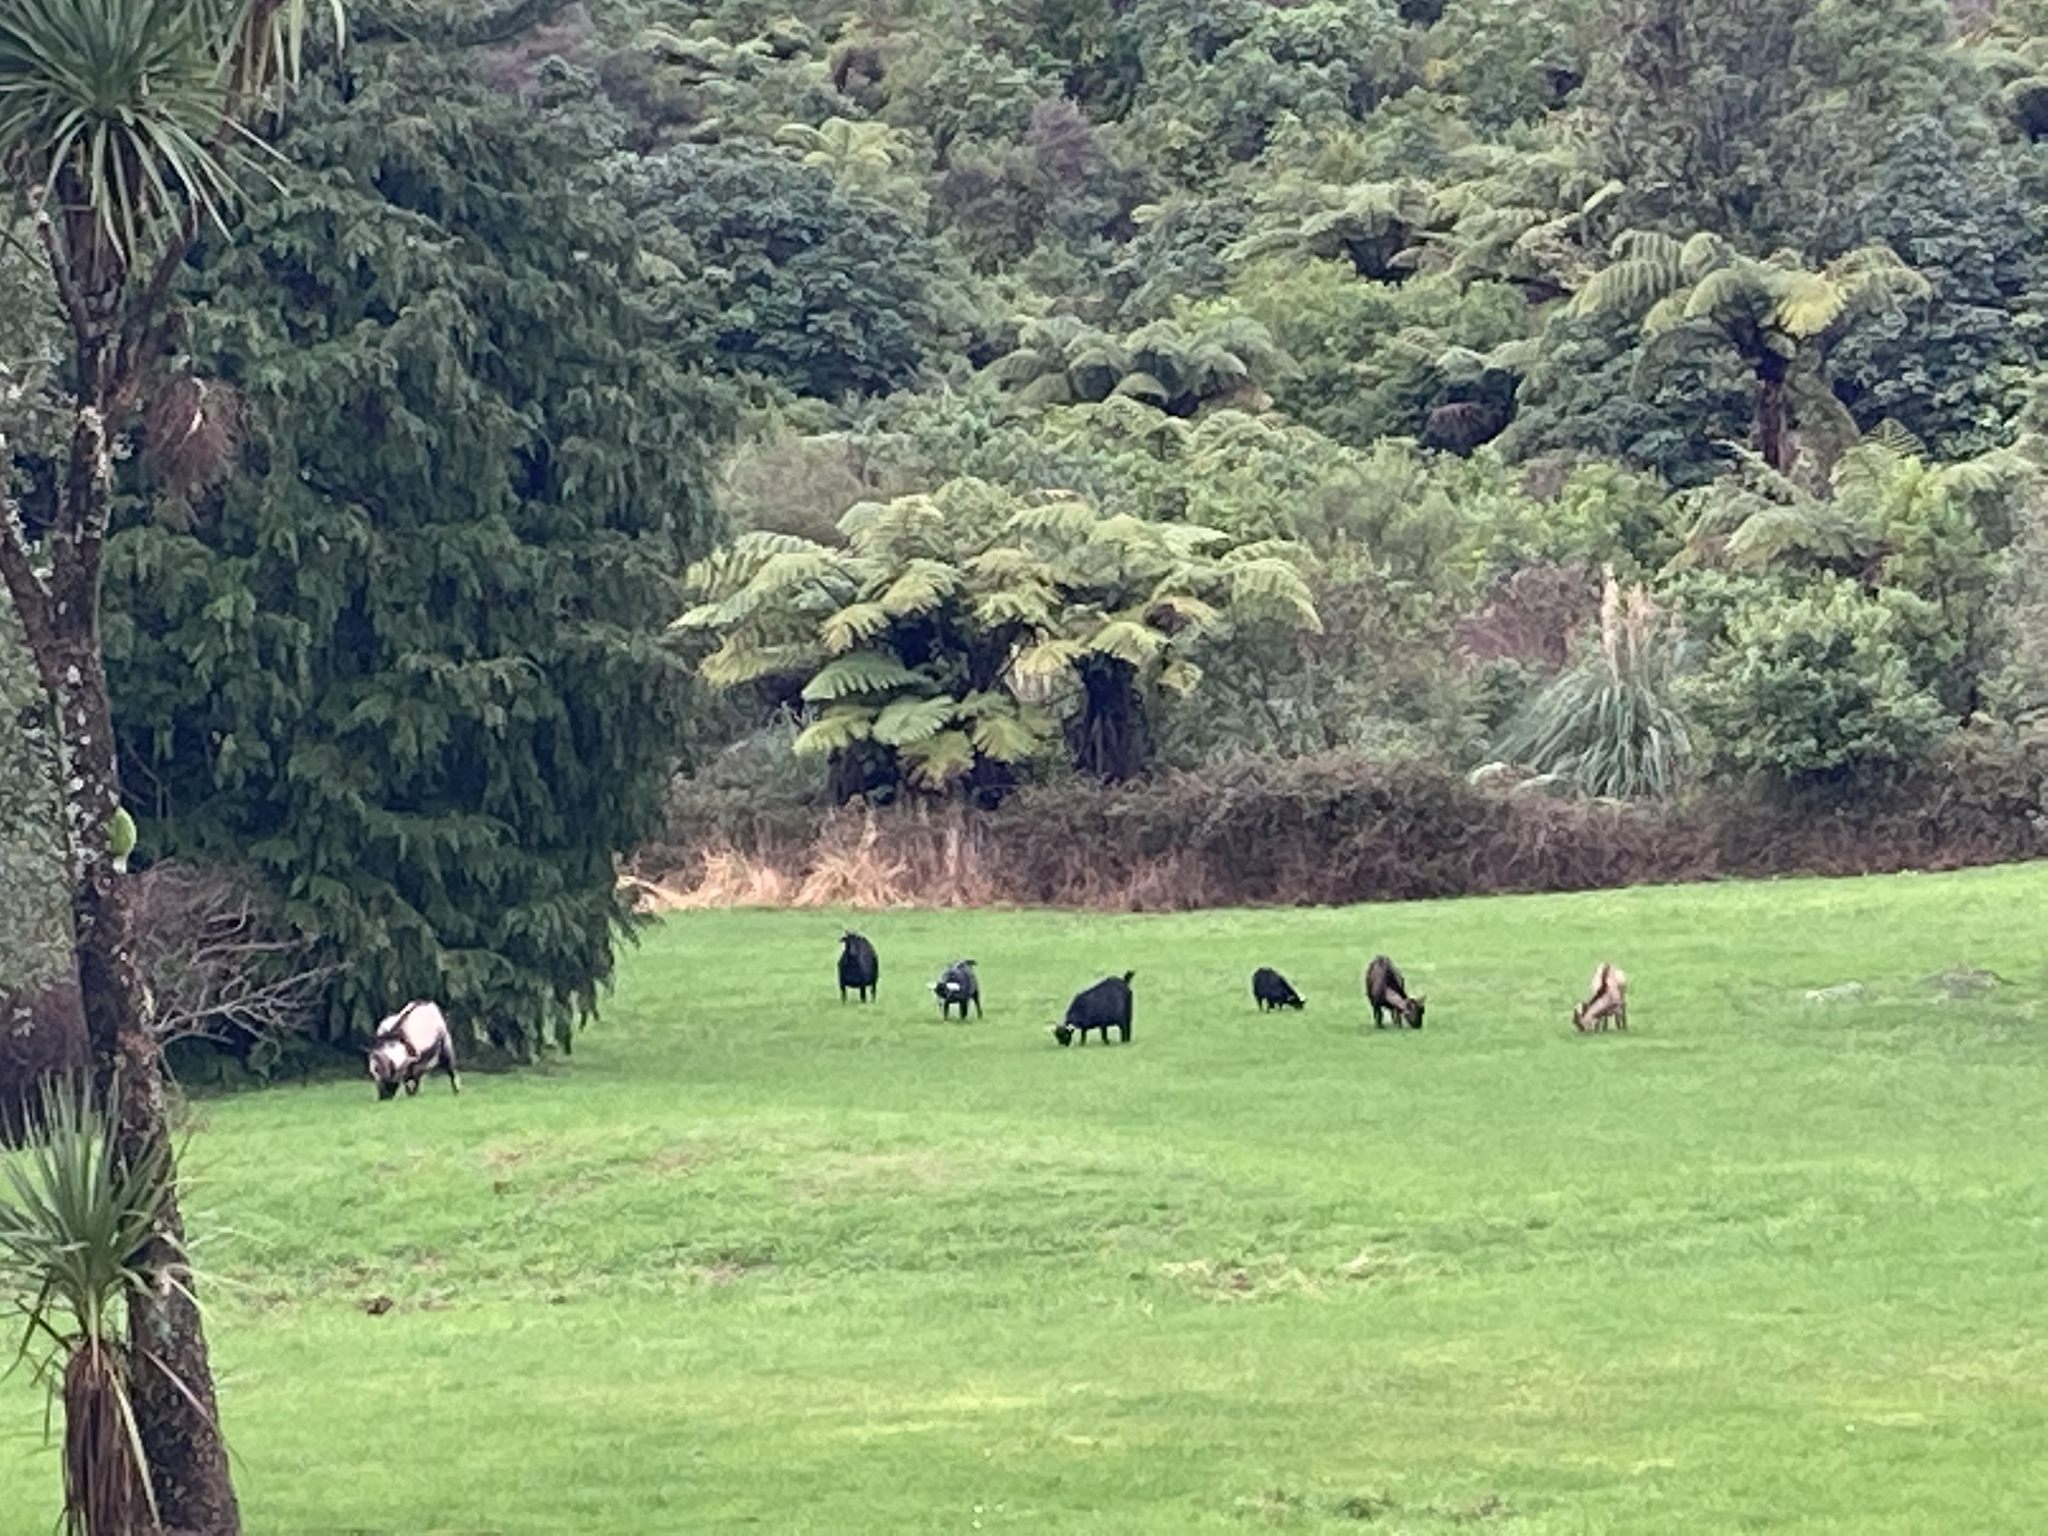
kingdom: Animalia
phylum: Chordata
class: Mammalia
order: Artiodactyla
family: Bovidae
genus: Capra
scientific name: Capra hircus
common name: Domestic goat
